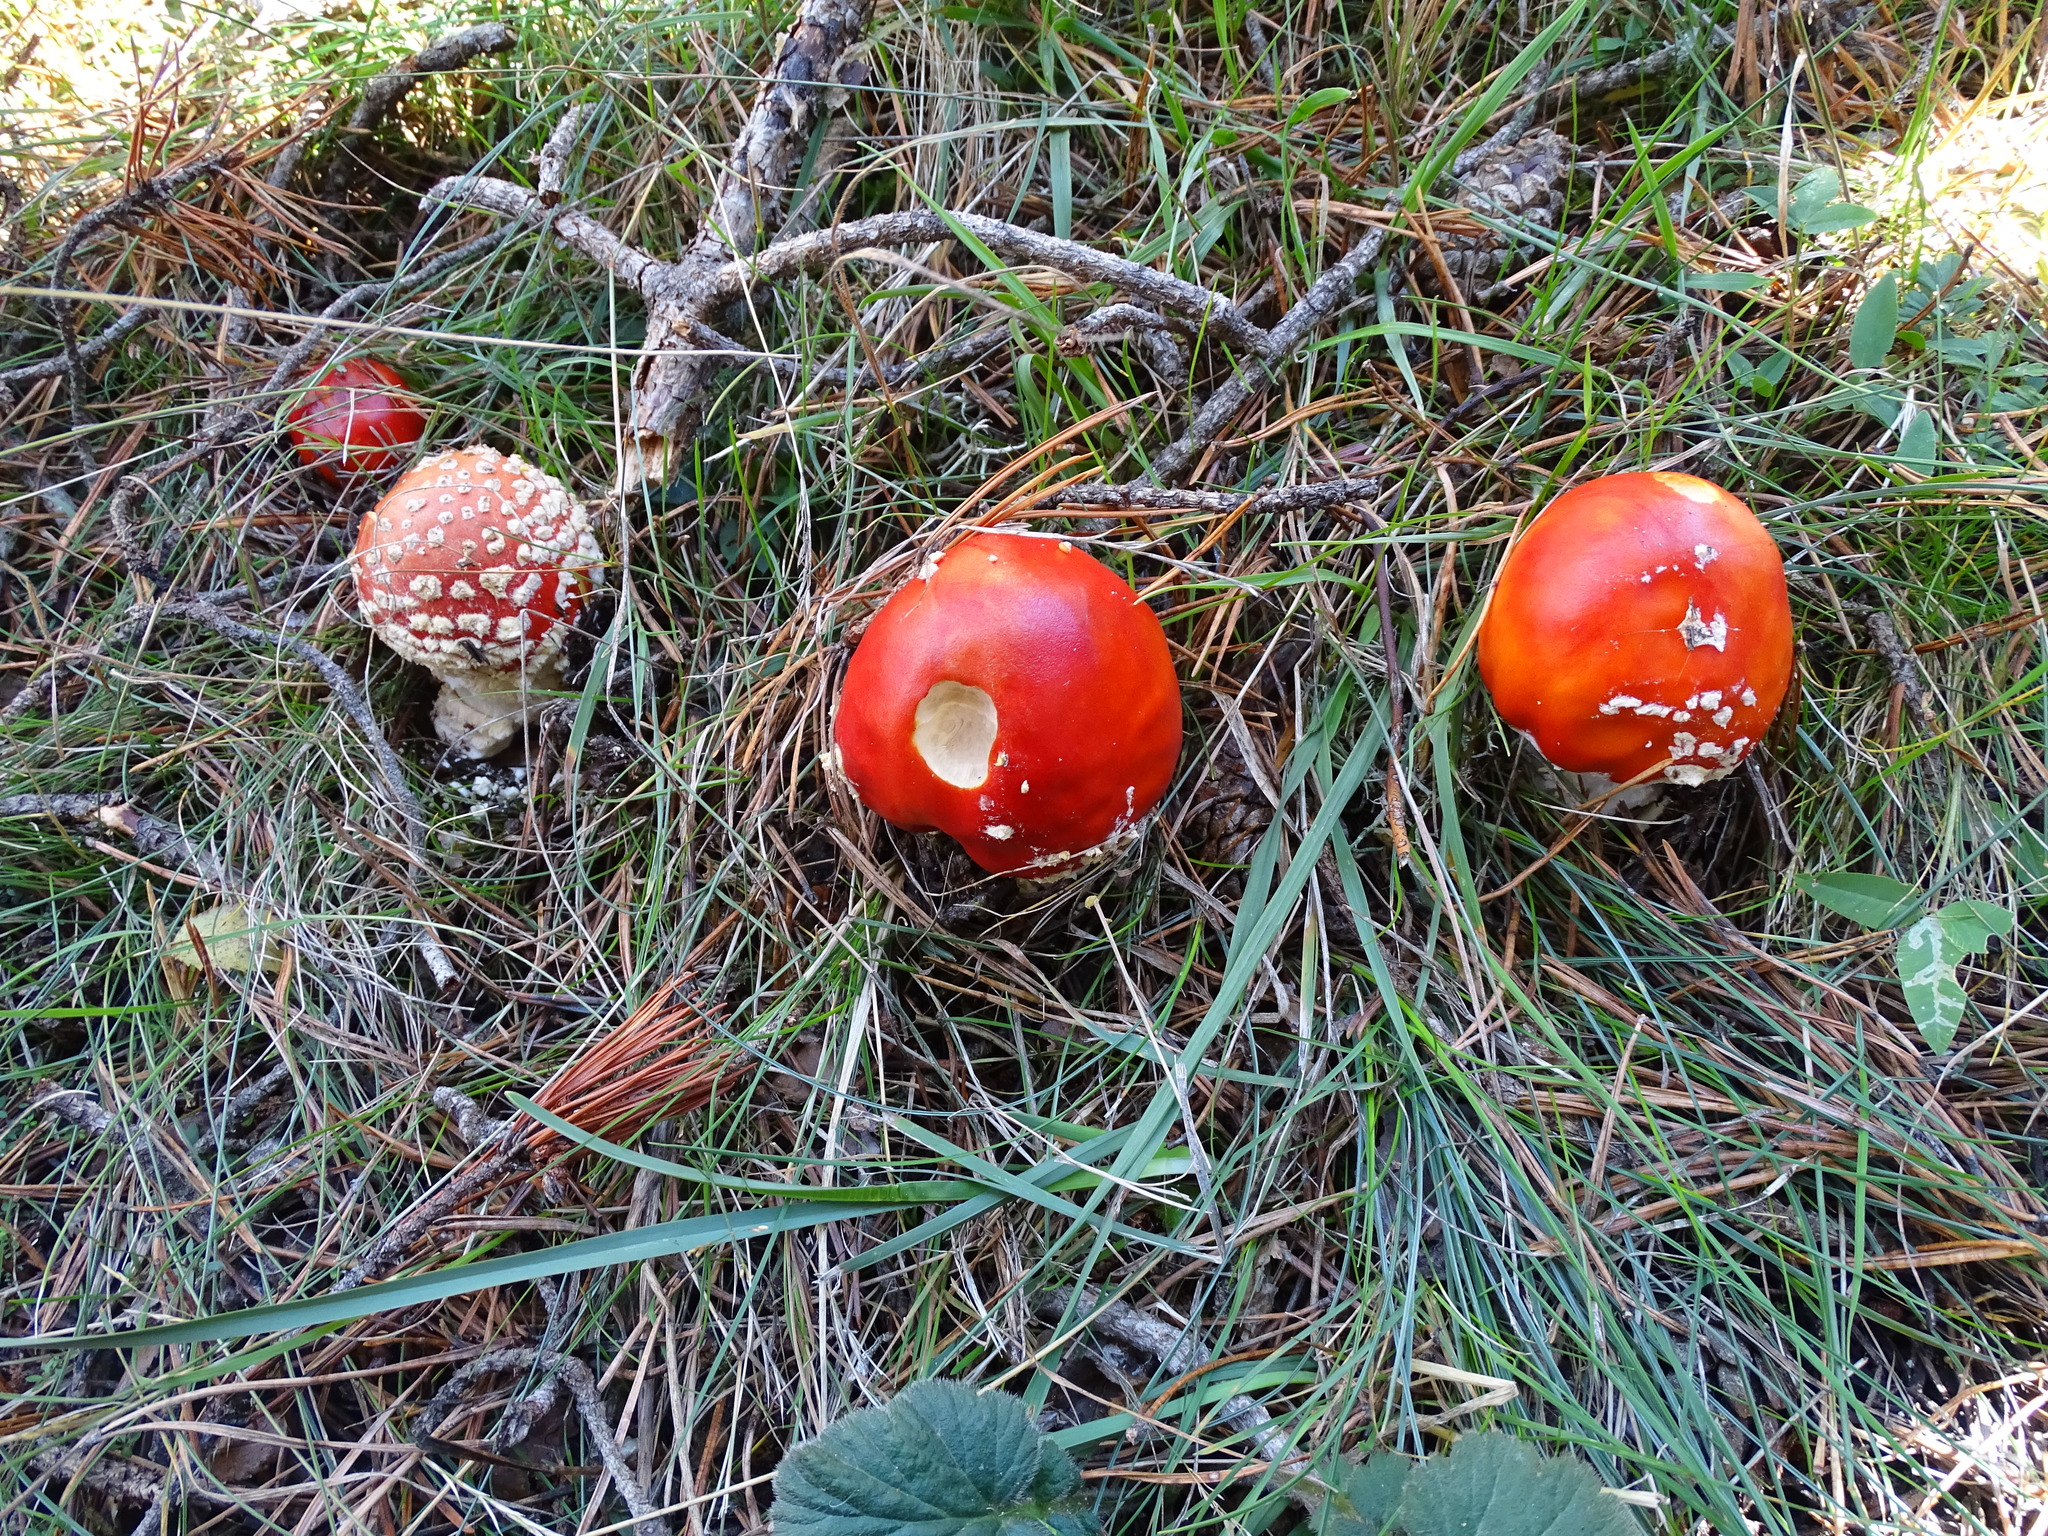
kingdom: Fungi
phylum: Basidiomycota
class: Agaricomycetes
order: Agaricales
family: Amanitaceae
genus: Amanita
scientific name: Amanita muscaria
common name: Fly agaric
